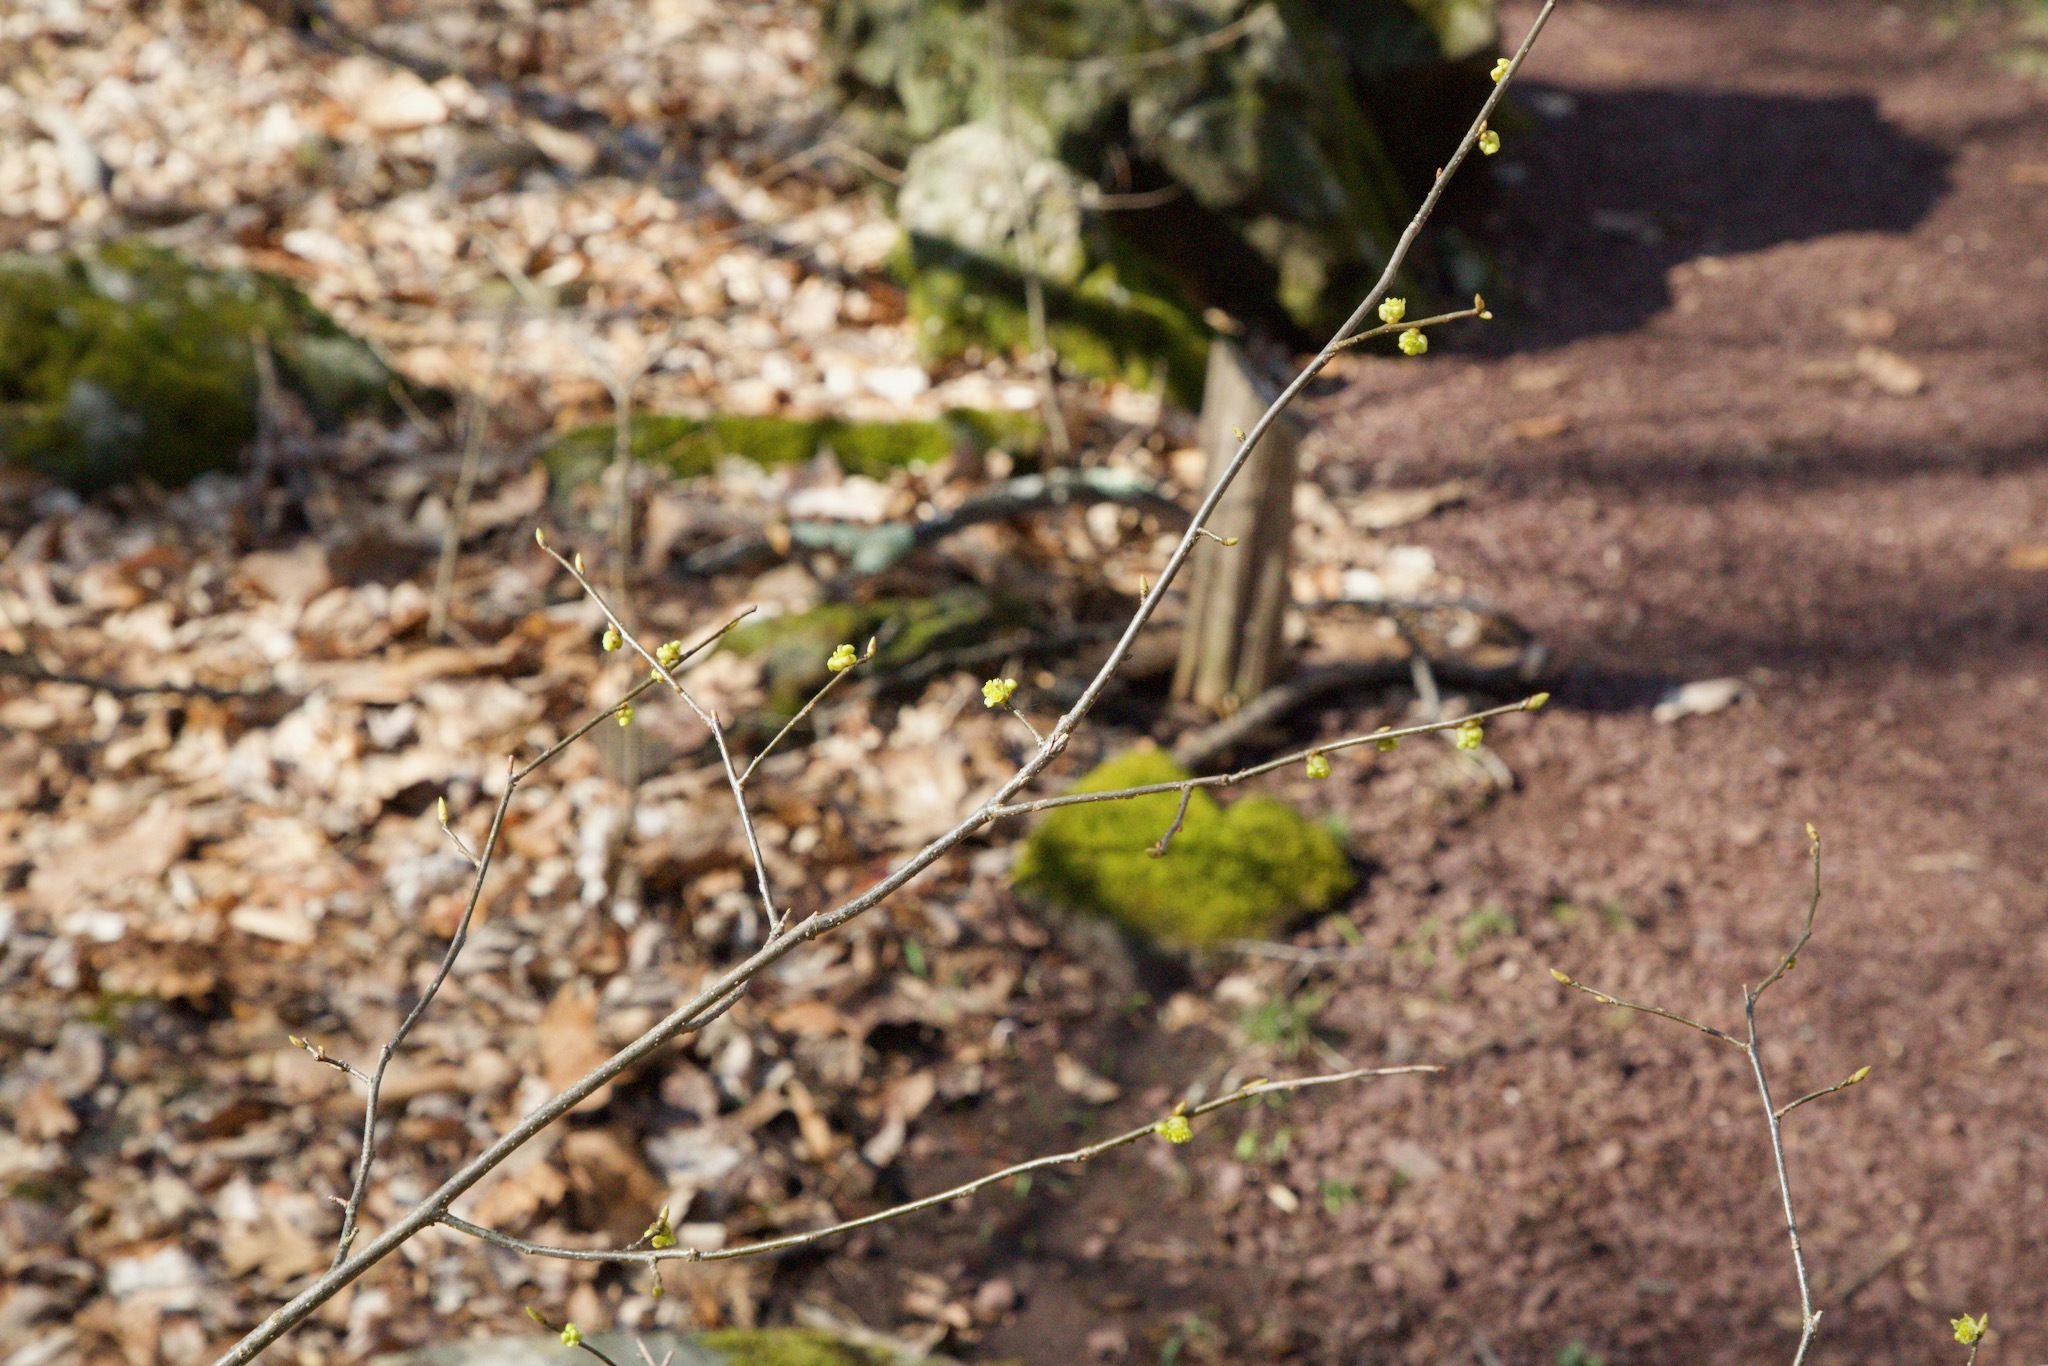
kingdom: Plantae
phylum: Tracheophyta
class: Magnoliopsida
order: Laurales
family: Lauraceae
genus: Lindera
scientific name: Lindera benzoin
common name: Spicebush
